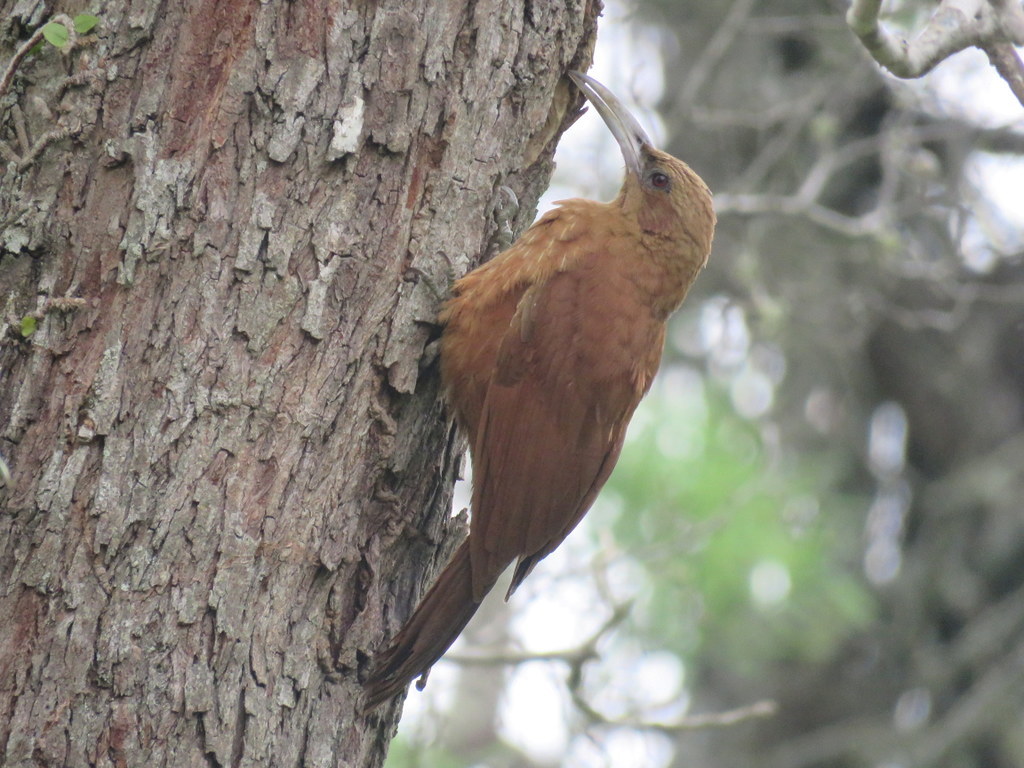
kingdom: Animalia
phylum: Chordata
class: Aves
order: Passeriformes
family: Furnariidae
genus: Xiphocolaptes
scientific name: Xiphocolaptes major
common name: Great rufous woodcreeper
